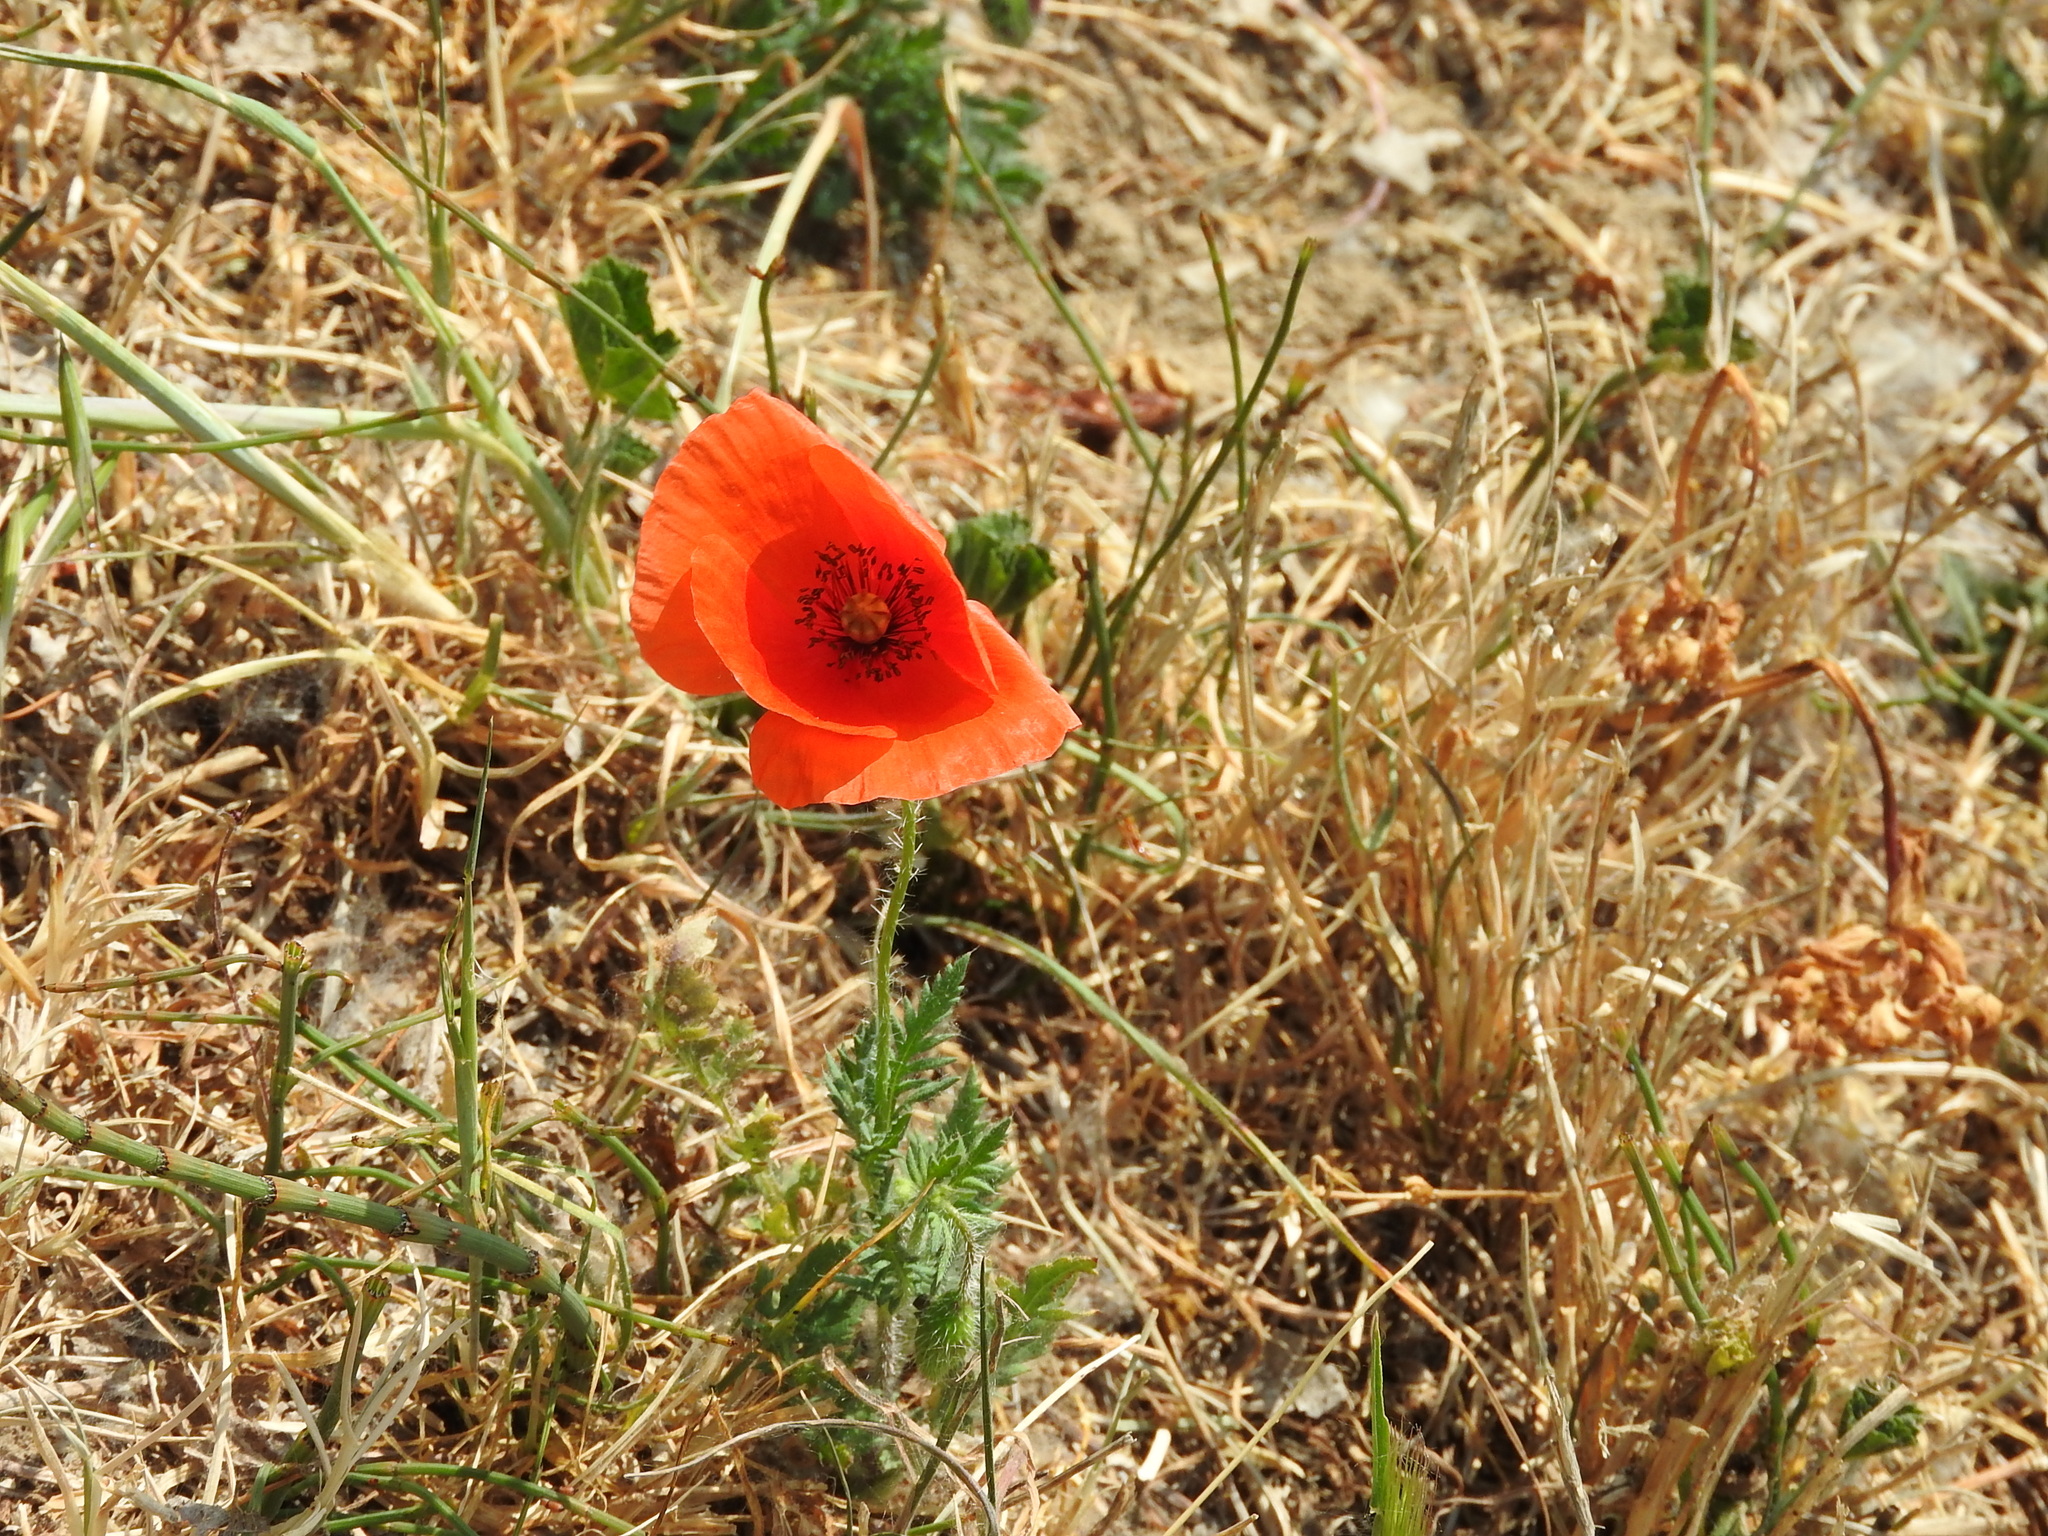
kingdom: Plantae
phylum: Tracheophyta
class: Magnoliopsida
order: Ranunculales
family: Papaveraceae
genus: Papaver
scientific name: Papaver rhoeas
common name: Corn poppy
